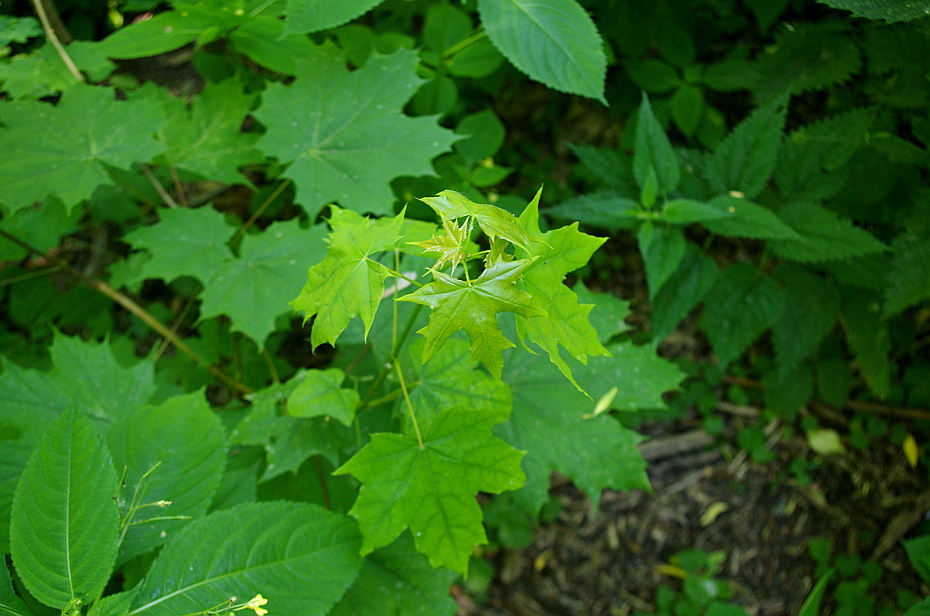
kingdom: Plantae
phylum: Tracheophyta
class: Magnoliopsida
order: Sapindales
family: Sapindaceae
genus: Acer
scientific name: Acer platanoides
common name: Norway maple
